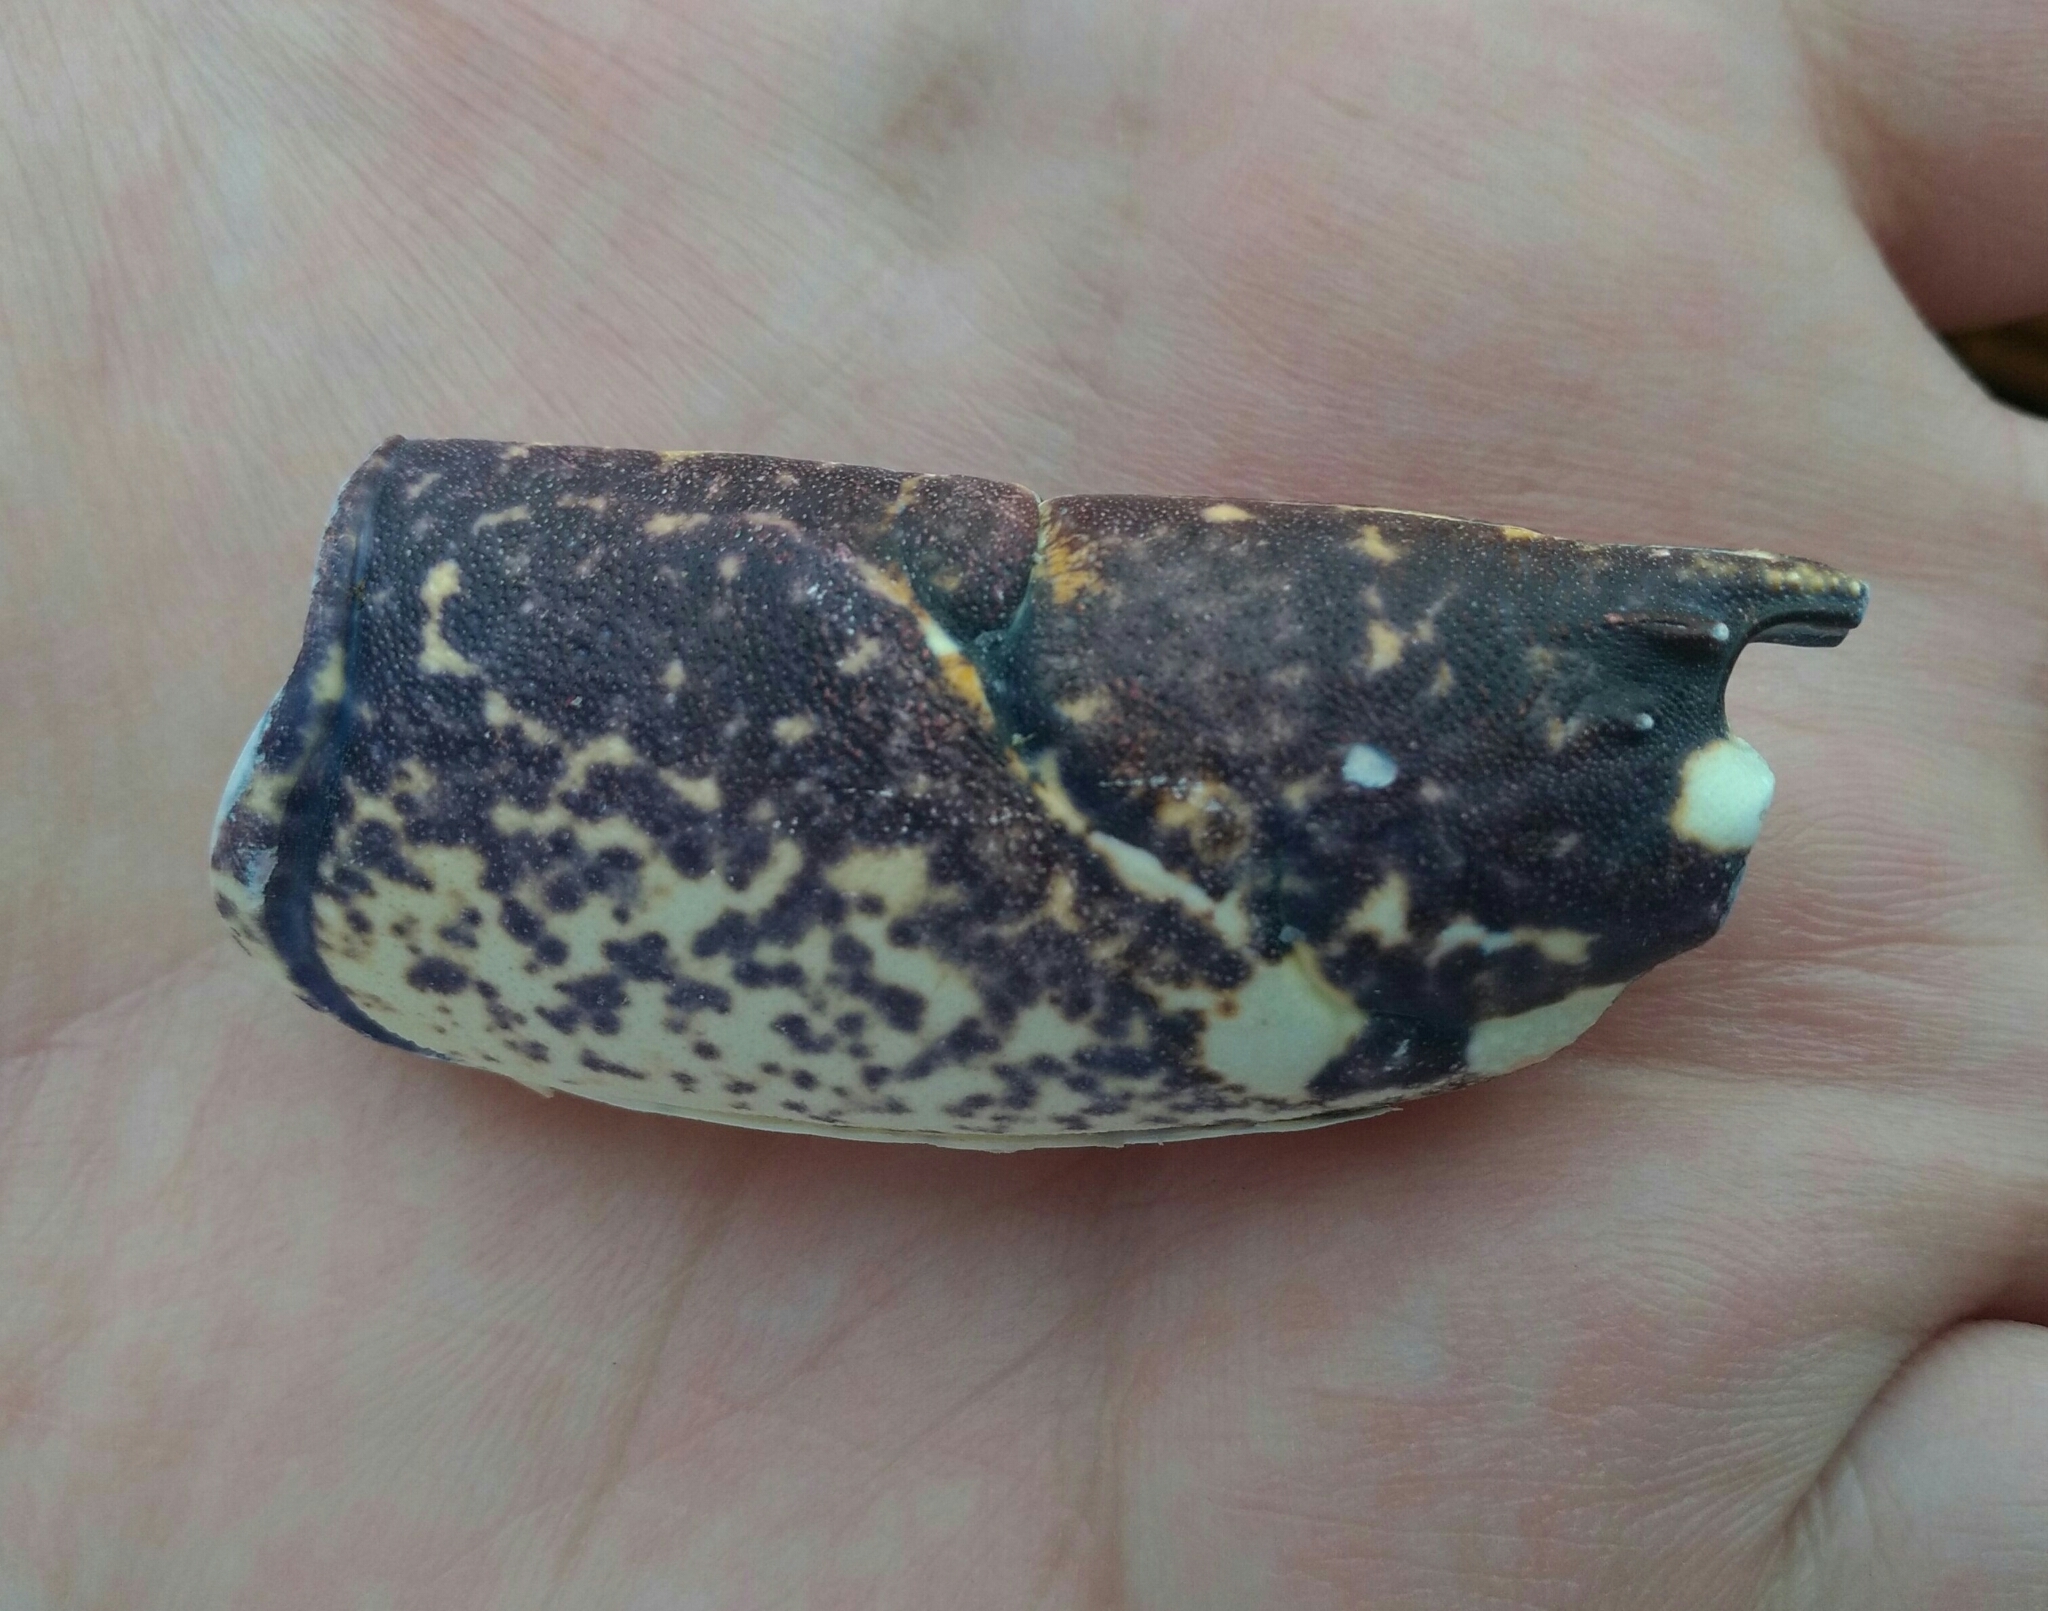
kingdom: Animalia
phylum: Arthropoda
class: Malacostraca
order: Decapoda
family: Nephropidae
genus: Homarus
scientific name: Homarus gammarus
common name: European lobster
